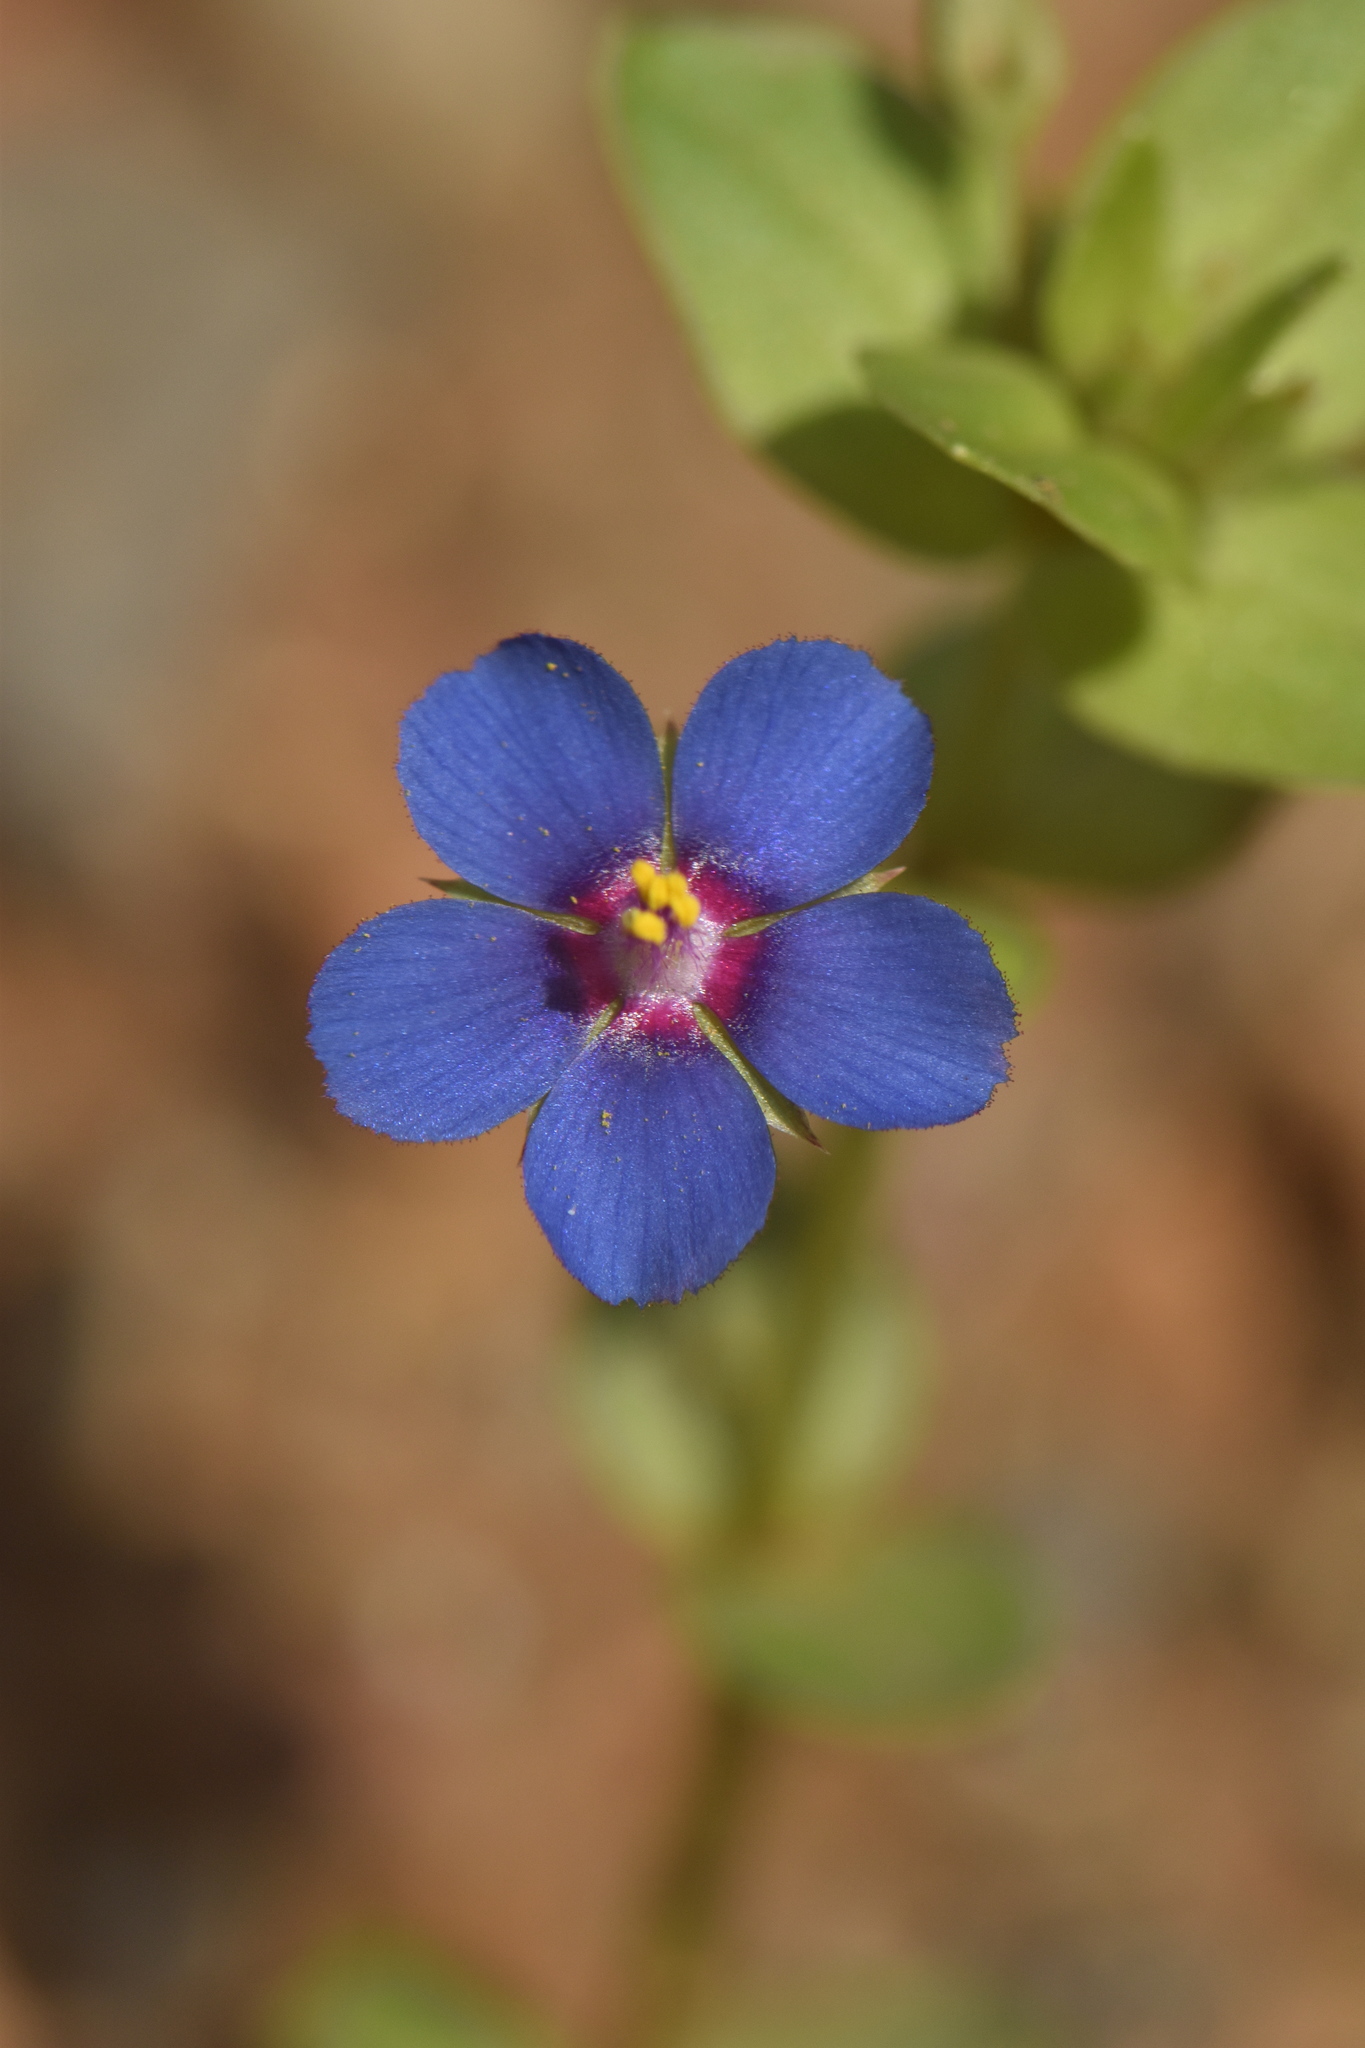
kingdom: Plantae
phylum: Tracheophyta
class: Magnoliopsida
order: Ericales
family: Primulaceae
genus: Lysimachia
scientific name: Lysimachia arvensis
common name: Scarlet pimpernel
